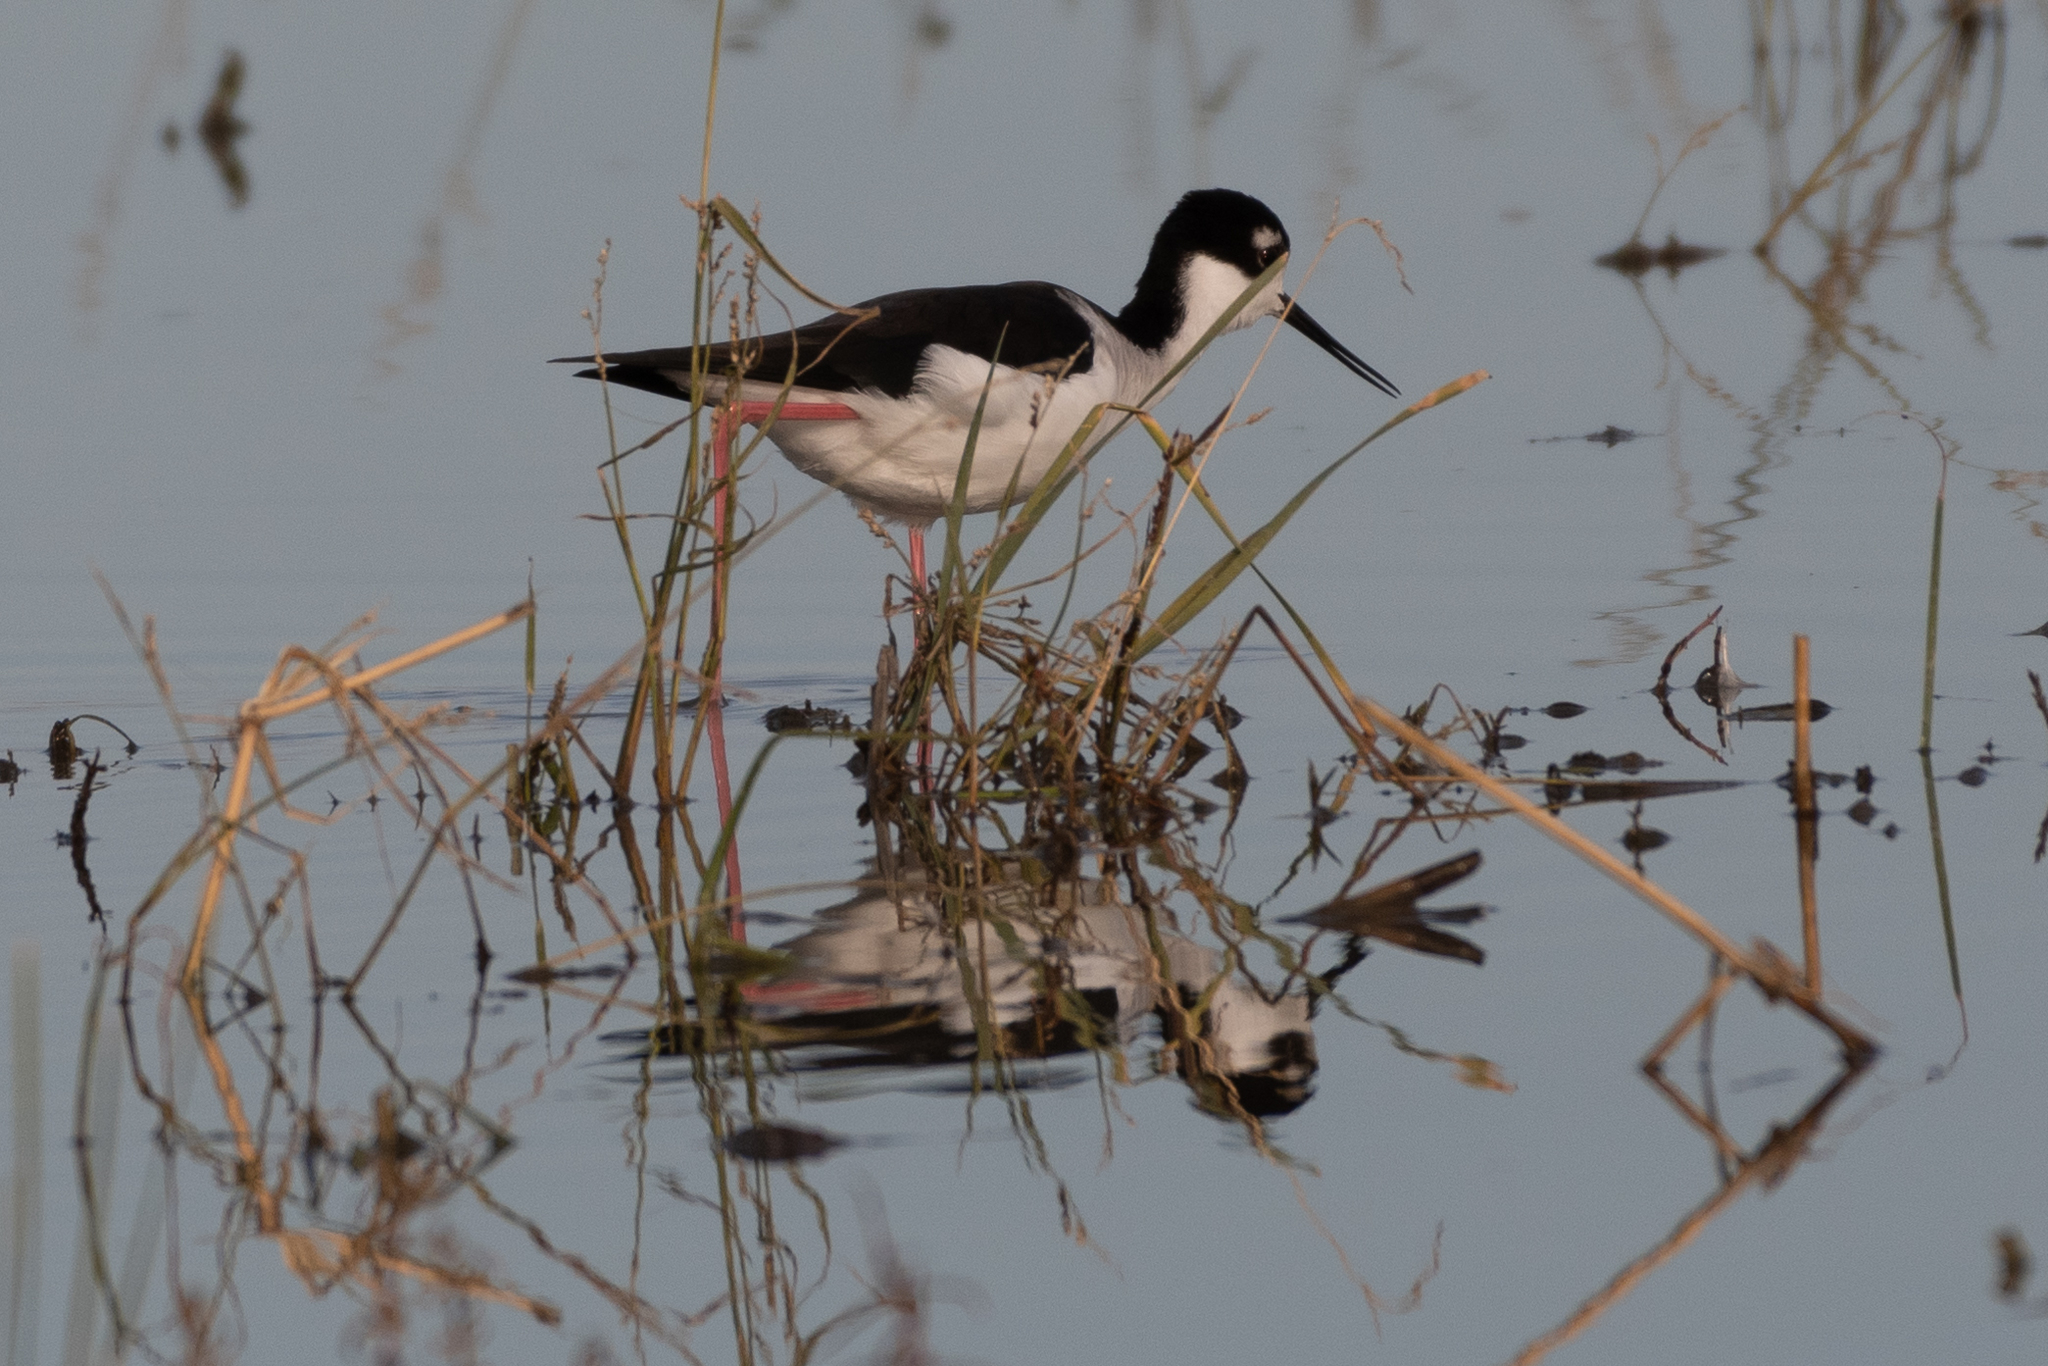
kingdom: Animalia
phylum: Chordata
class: Aves
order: Charadriiformes
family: Recurvirostridae
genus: Himantopus
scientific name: Himantopus mexicanus
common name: Black-necked stilt
